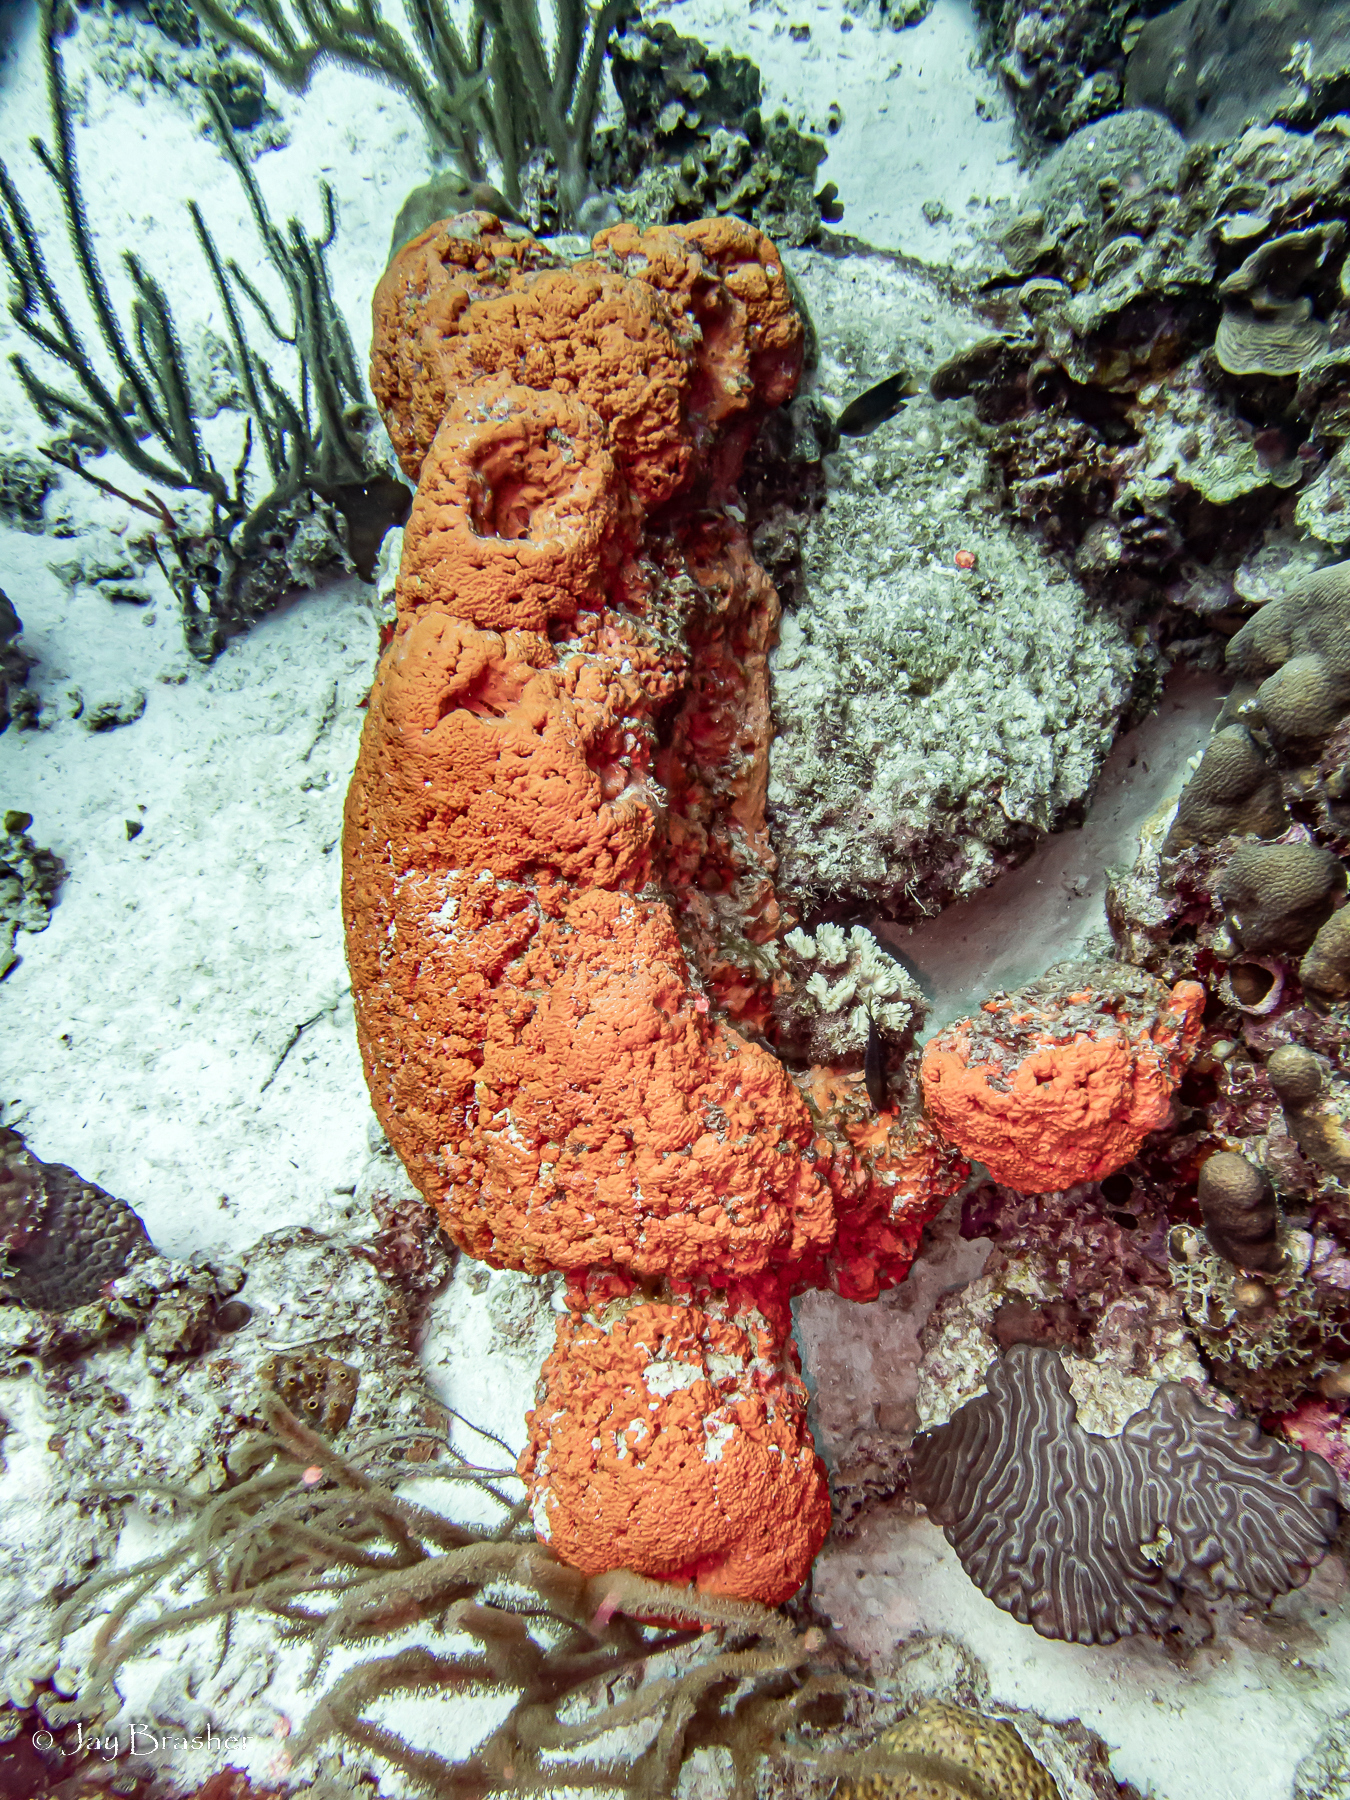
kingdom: Animalia
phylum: Porifera
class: Demospongiae
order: Agelasida
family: Agelasidae
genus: Agelas
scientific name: Agelas clathrodes
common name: Orange elephant ear sponge
